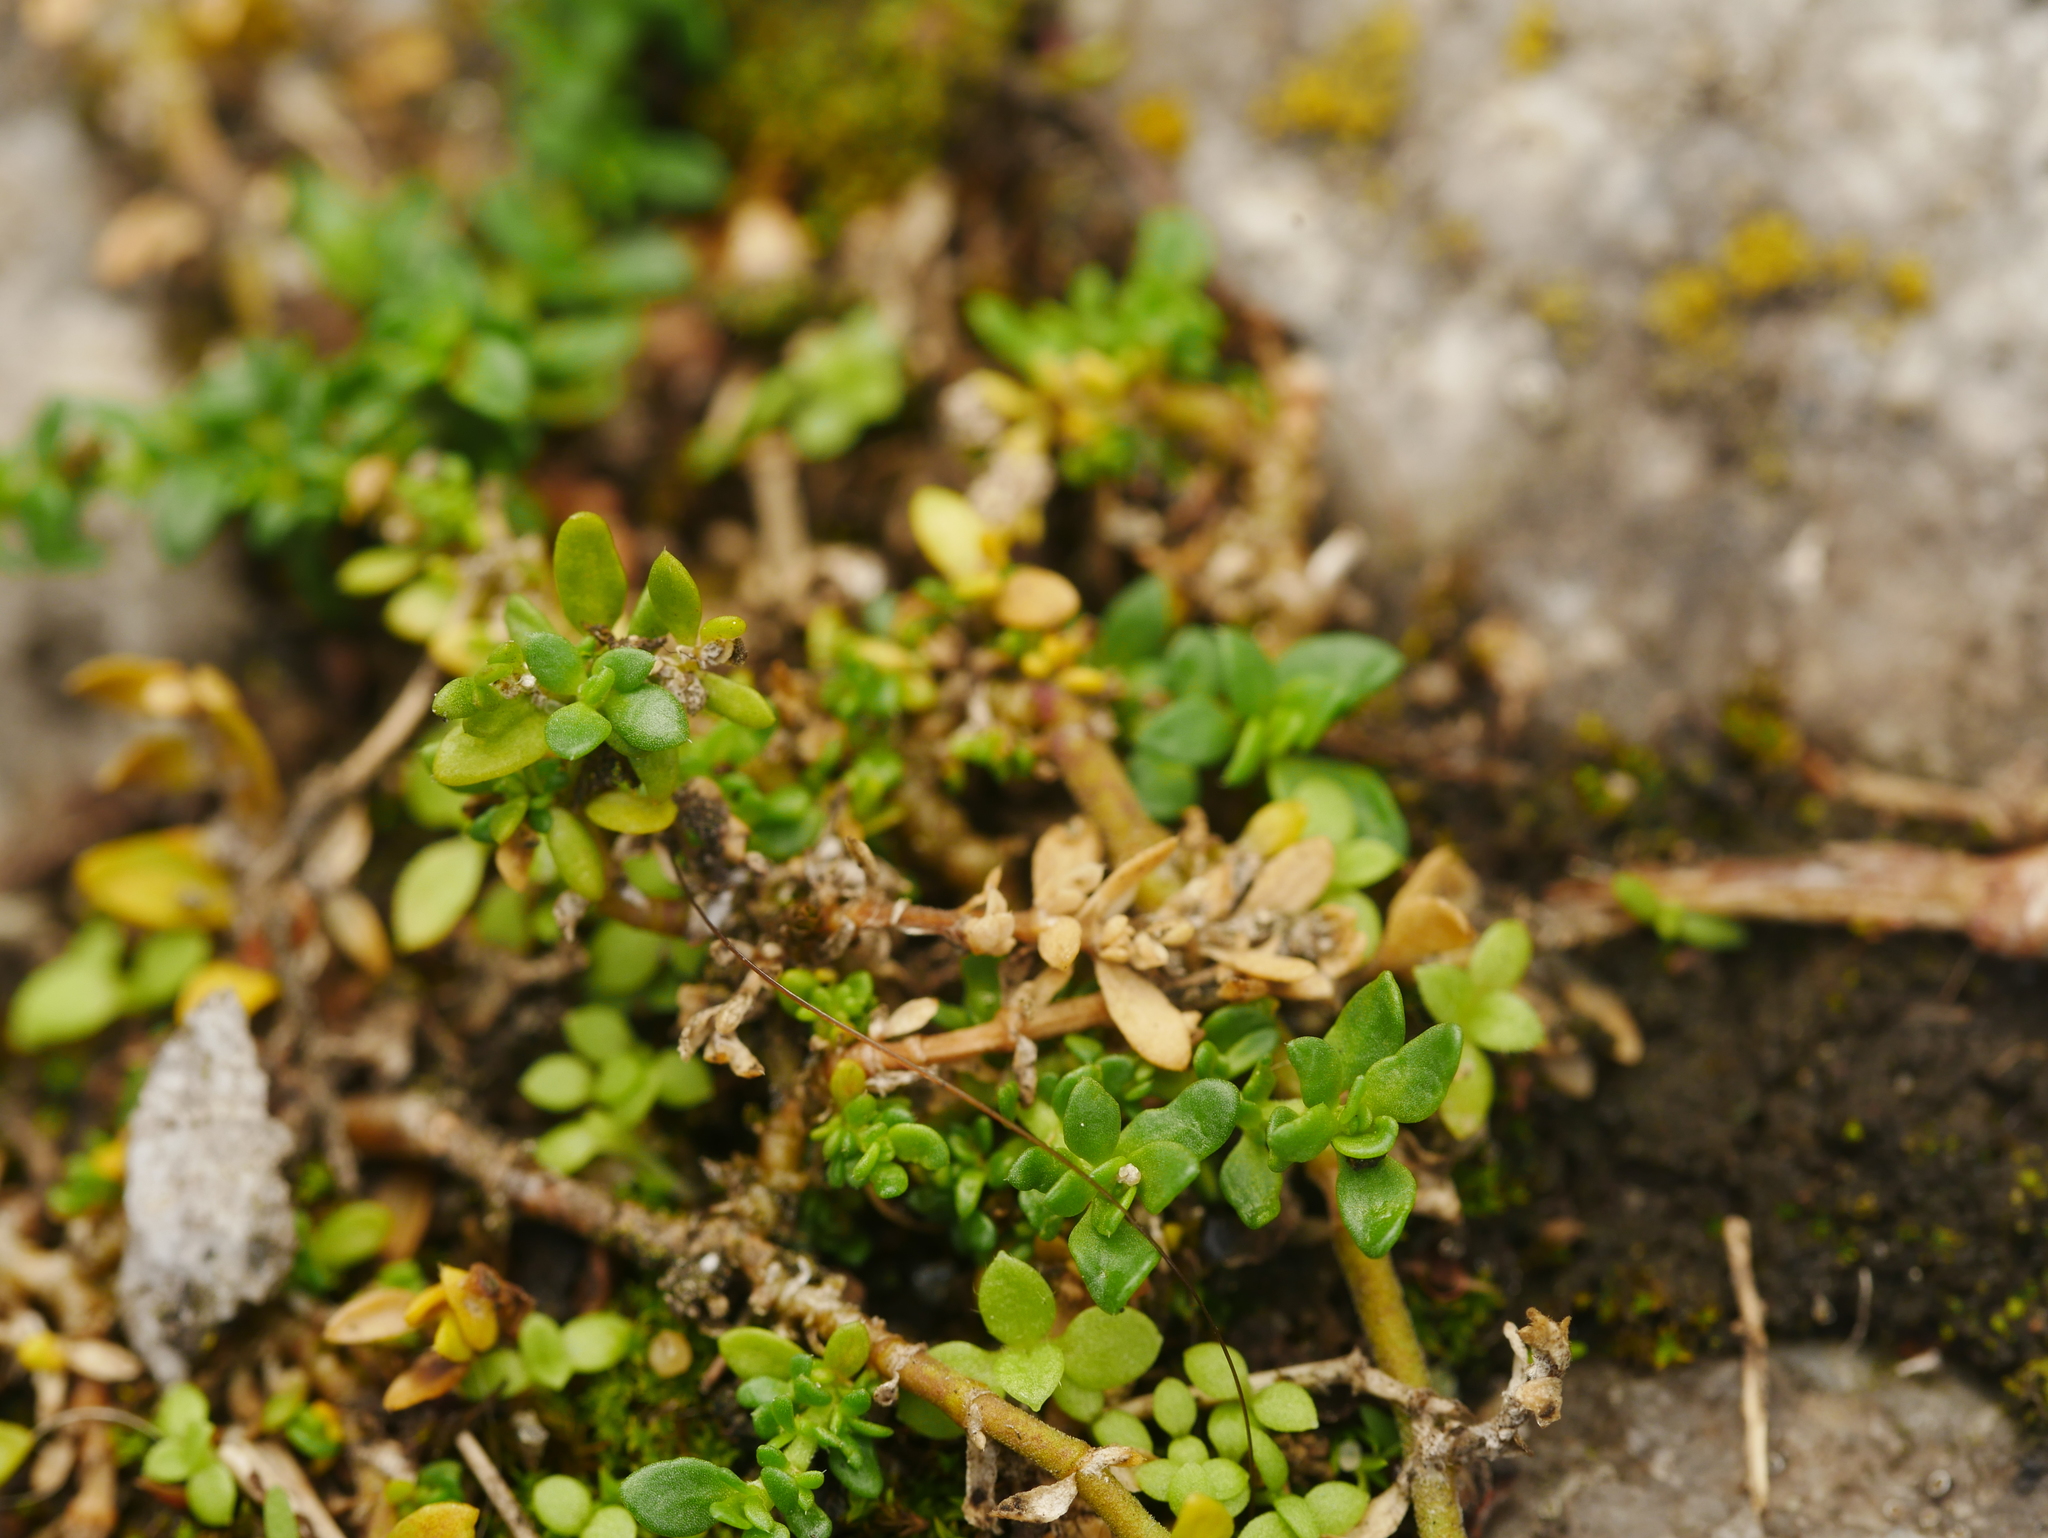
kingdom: Plantae
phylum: Tracheophyta
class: Magnoliopsida
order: Caryophyllales
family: Caryophyllaceae
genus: Herniaria
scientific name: Herniaria glabra
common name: Smooth rupturewort
